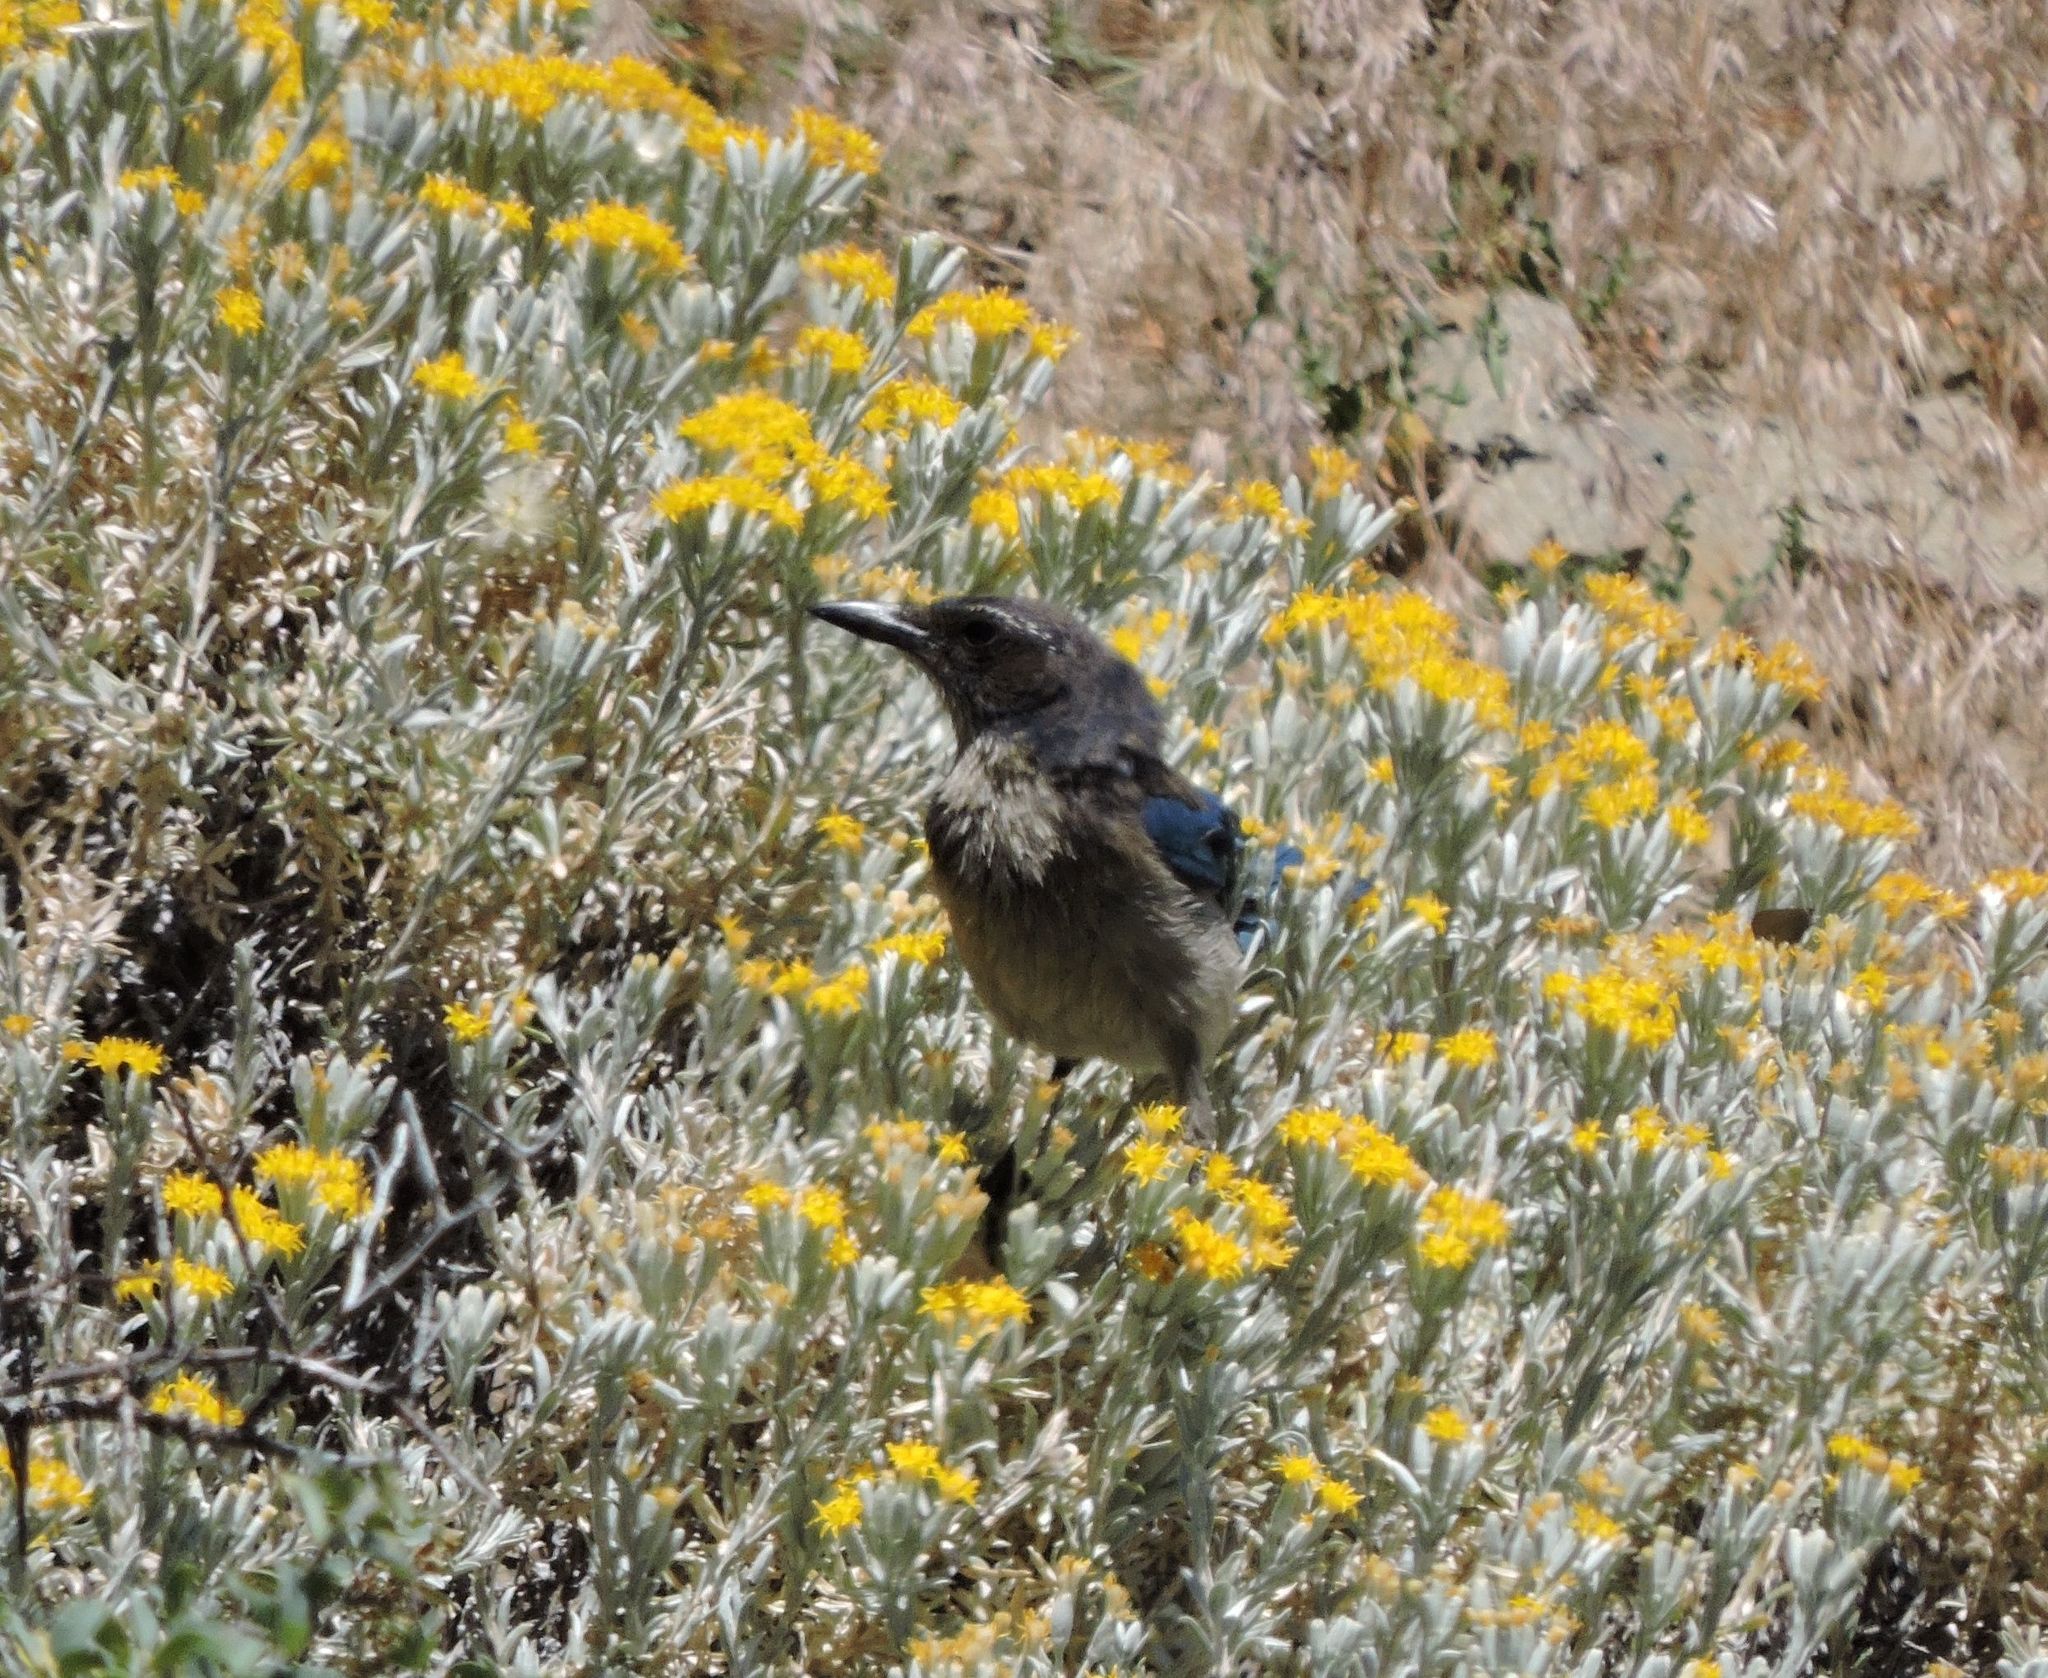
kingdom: Animalia
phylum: Chordata
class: Aves
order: Passeriformes
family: Corvidae
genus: Aphelocoma
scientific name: Aphelocoma californica
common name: California scrub-jay
